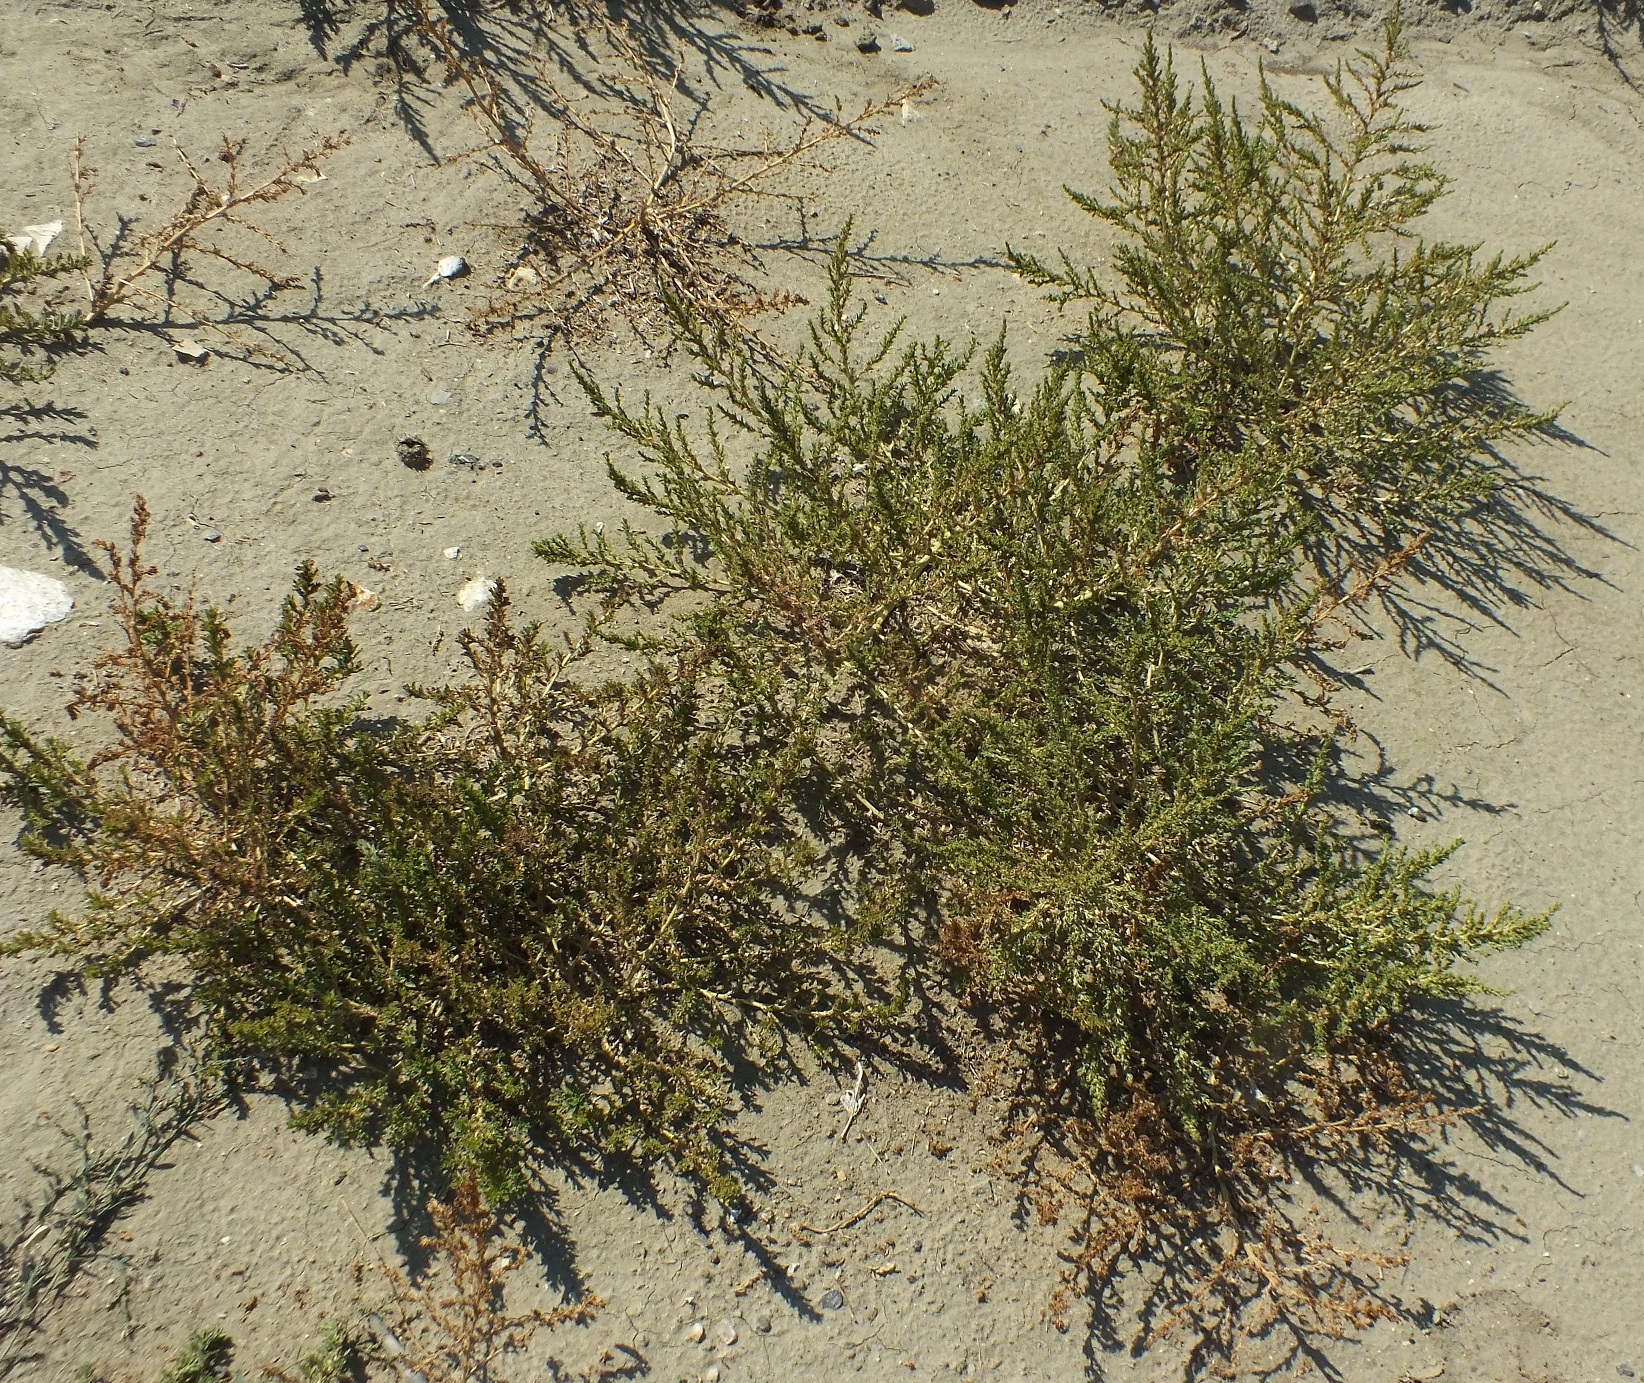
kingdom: Plantae
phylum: Tracheophyta
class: Magnoliopsida
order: Caryophyllales
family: Amaranthaceae
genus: Amaranthus
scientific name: Amaranthus albus
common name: White pigweed
